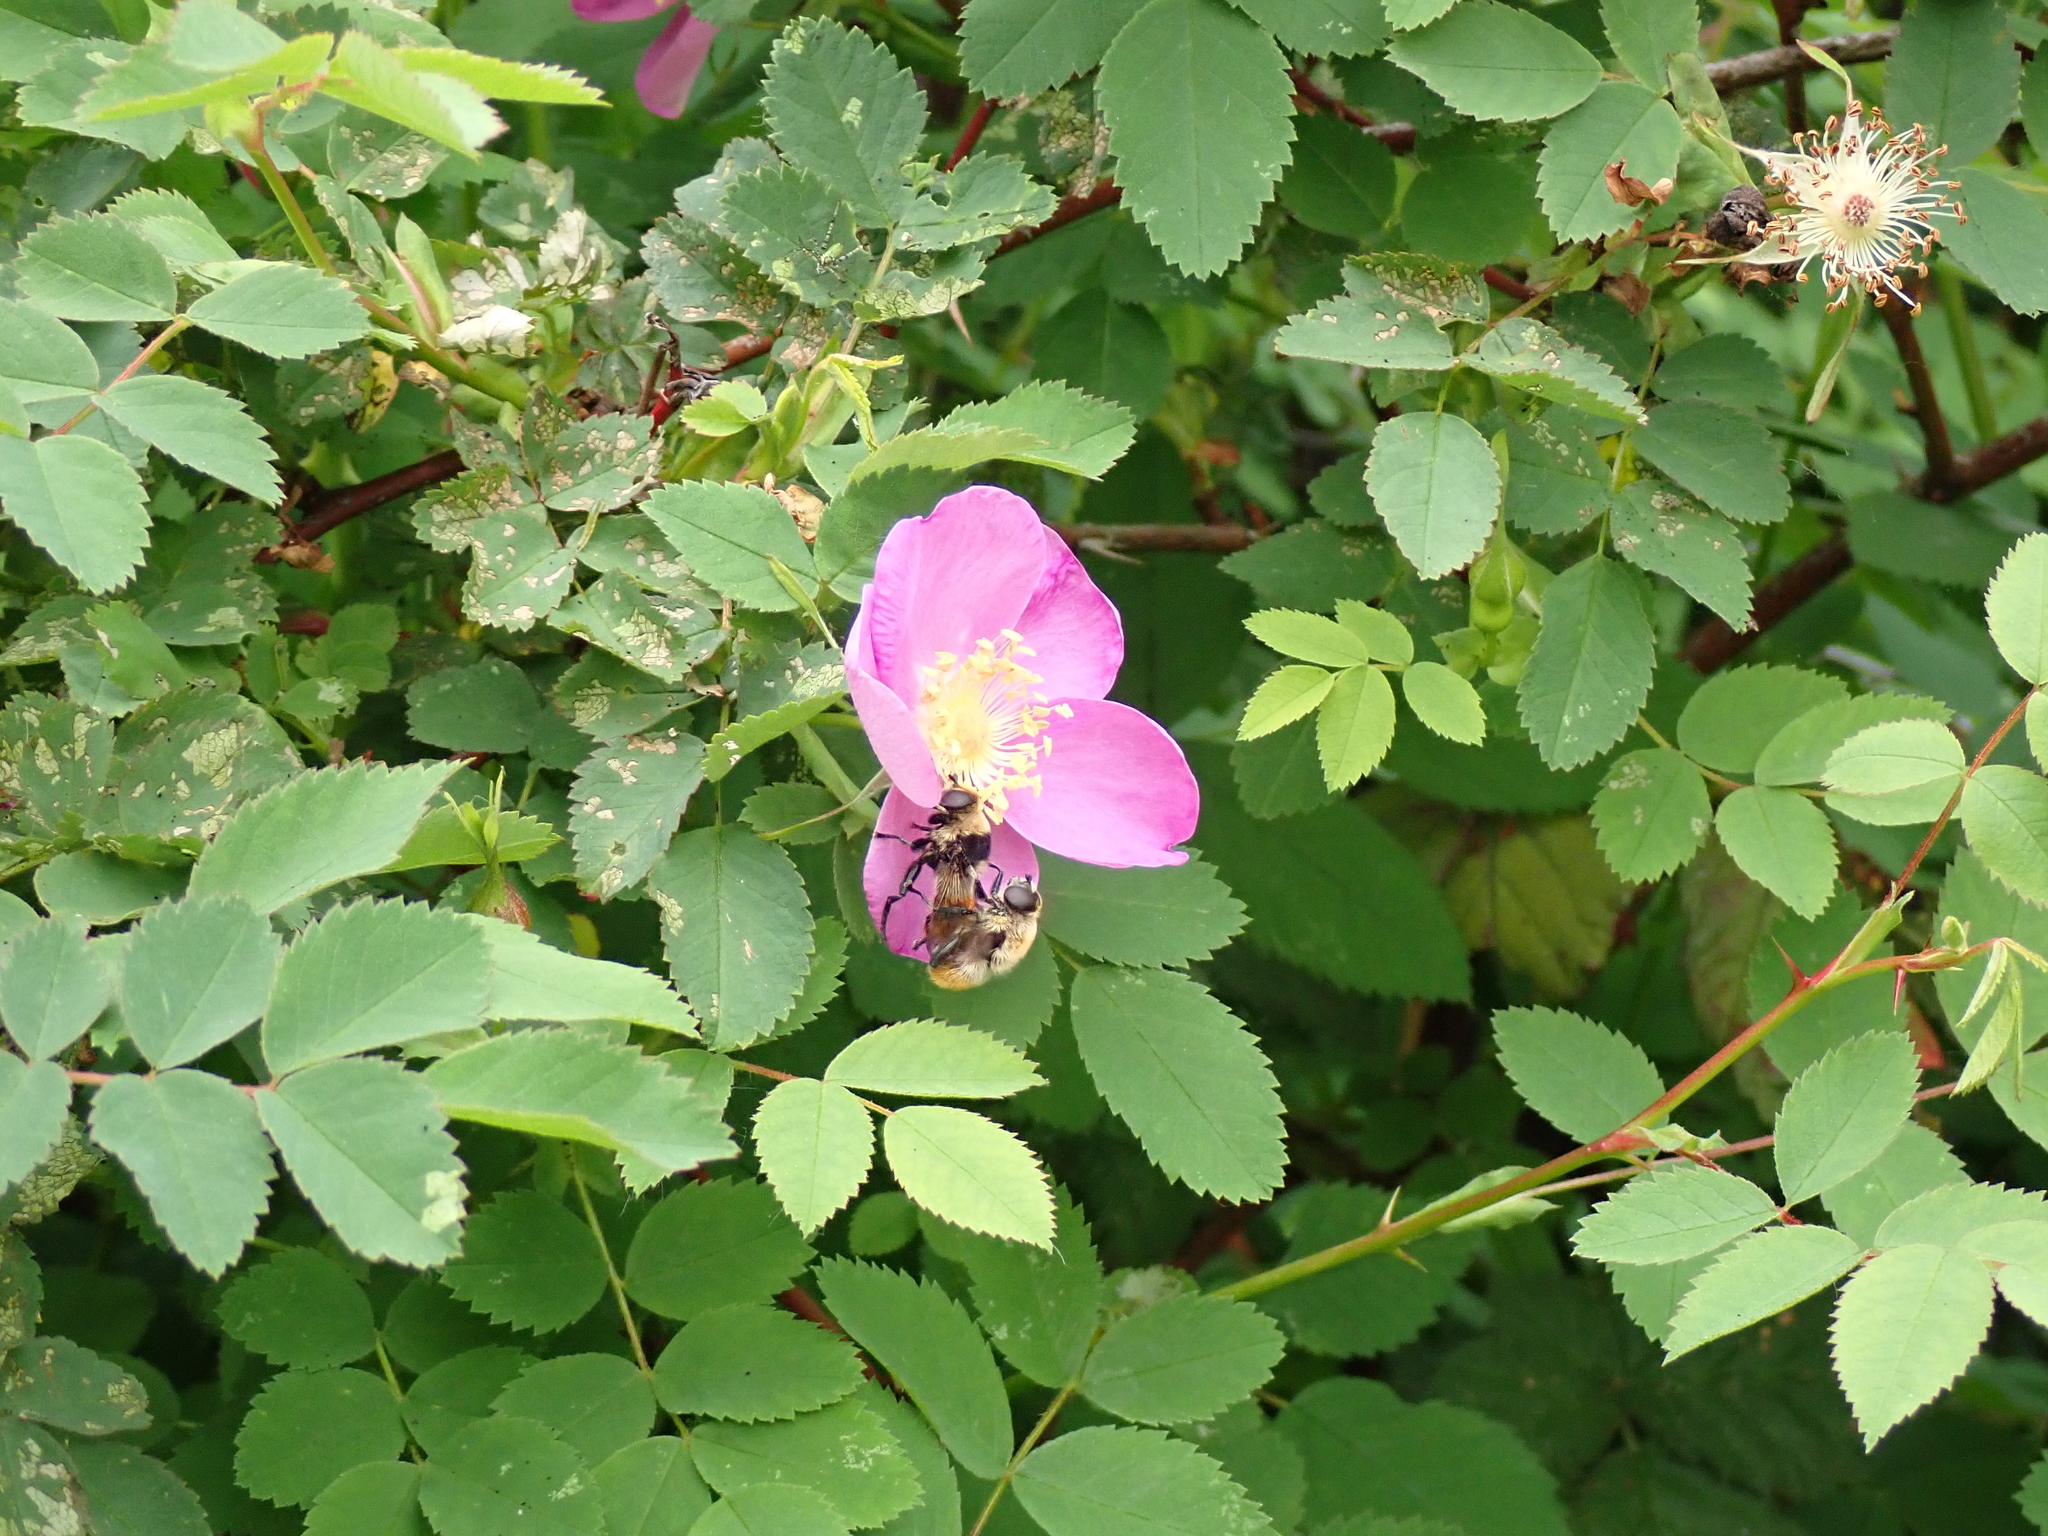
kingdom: Animalia
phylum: Arthropoda
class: Insecta
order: Diptera
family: Syrphidae
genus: Merodon
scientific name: Merodon equestris
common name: Greater bulb-fly
